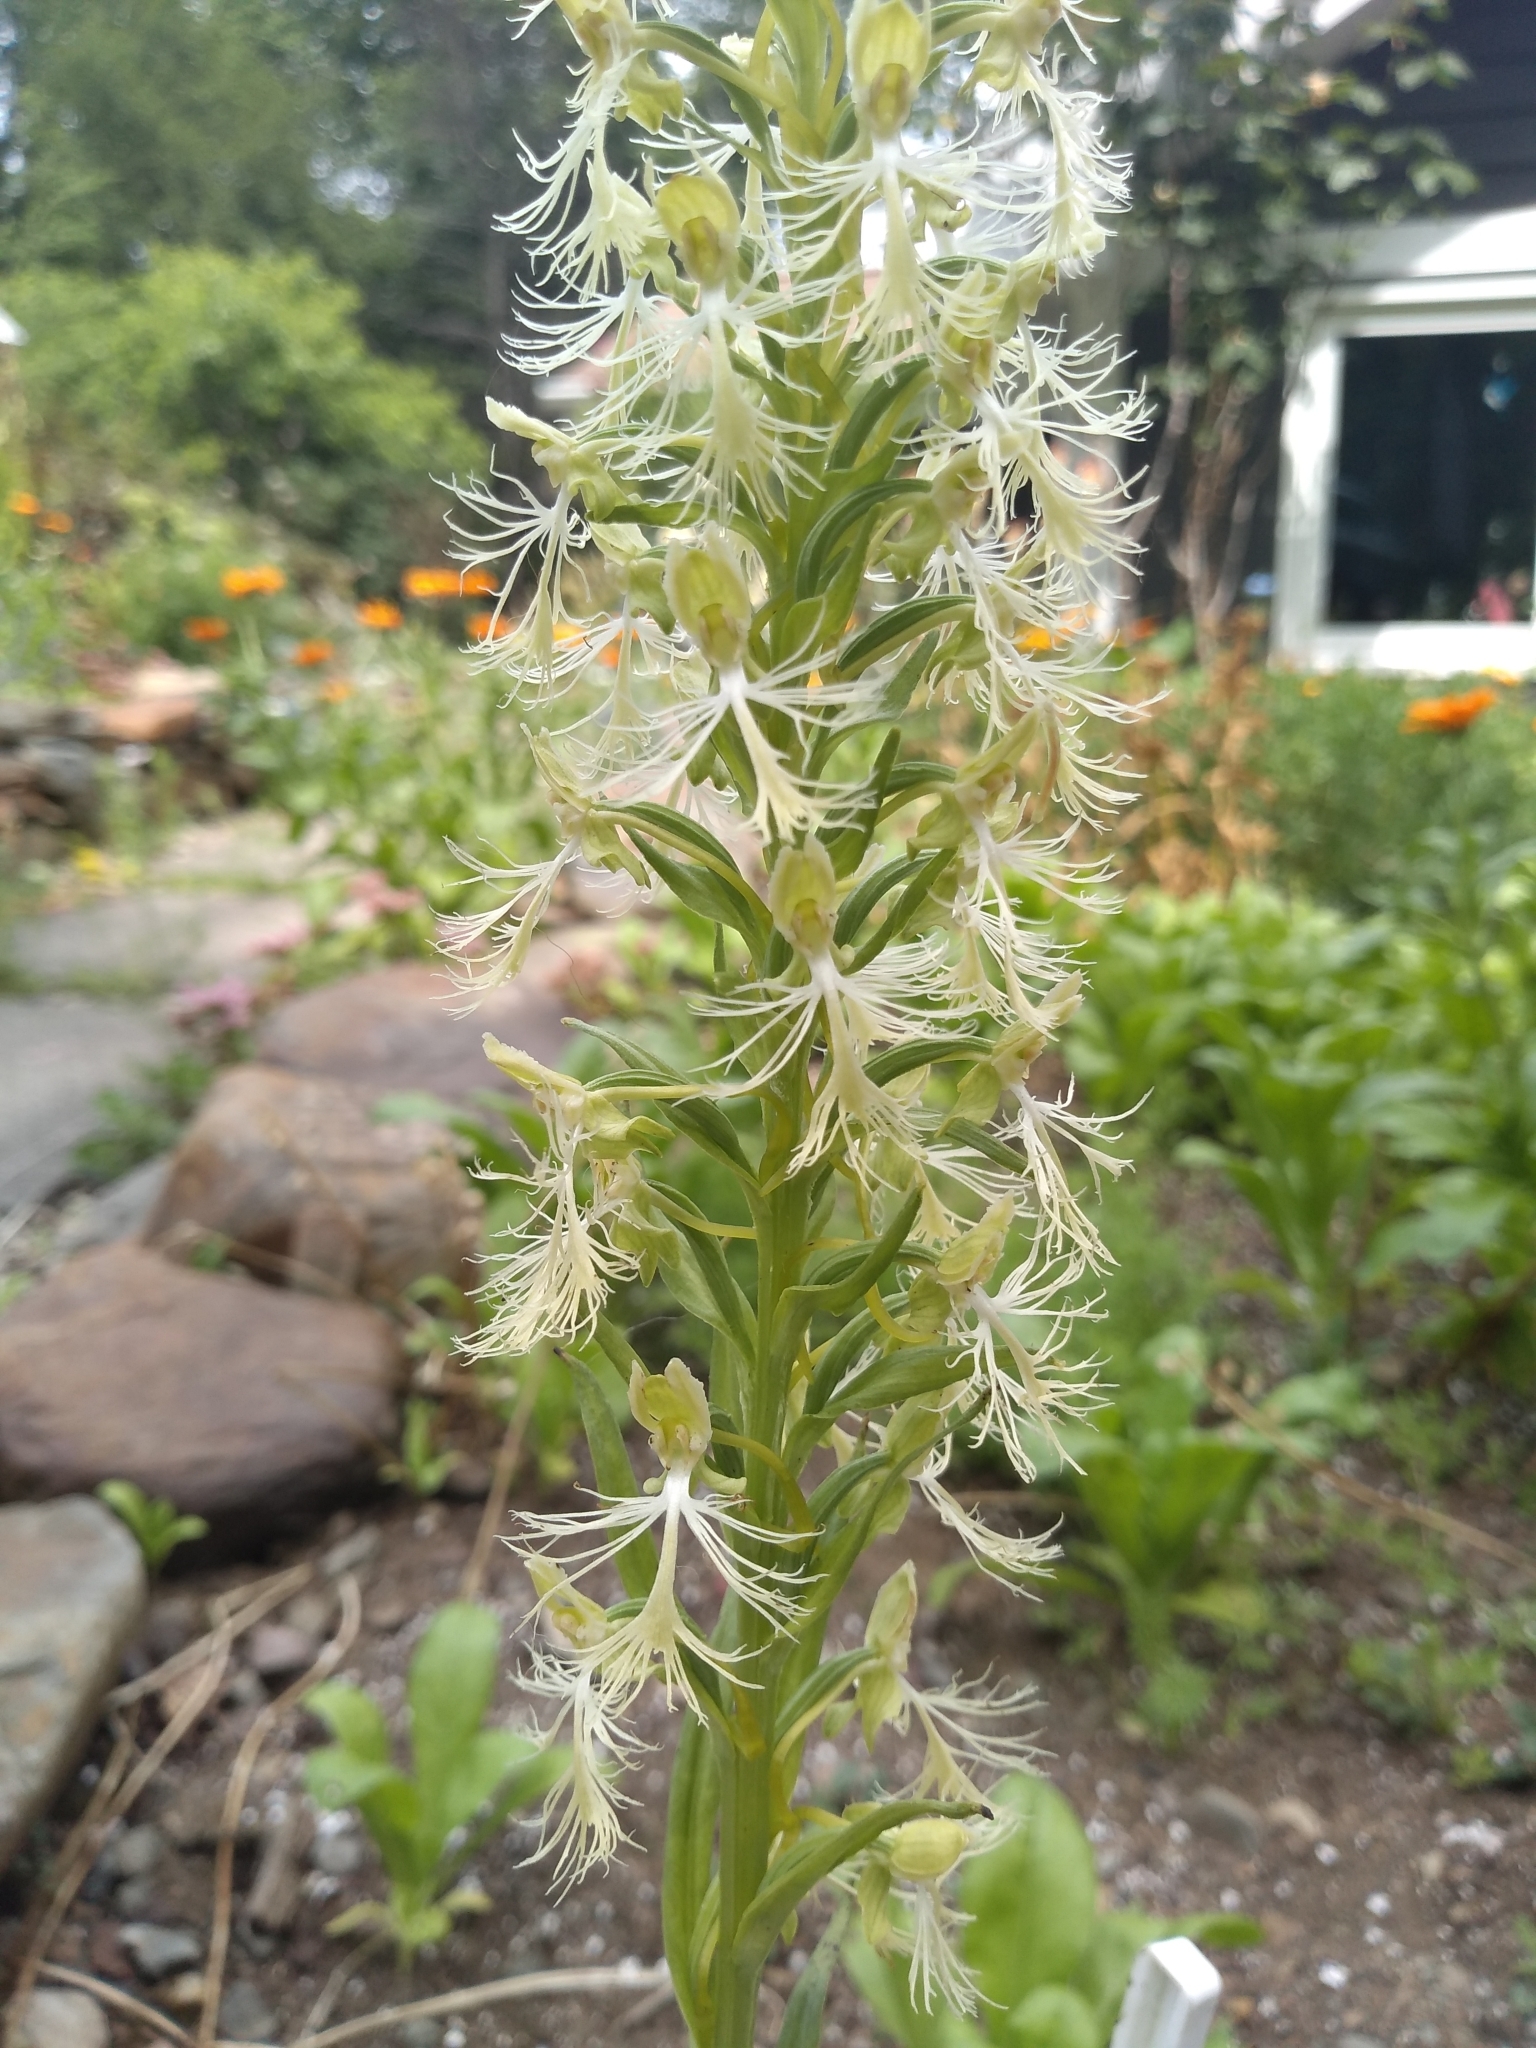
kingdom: Plantae
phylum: Tracheophyta
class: Liliopsida
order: Asparagales
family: Orchidaceae
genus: Platanthera
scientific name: Platanthera lacera
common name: Green fringed orchid
